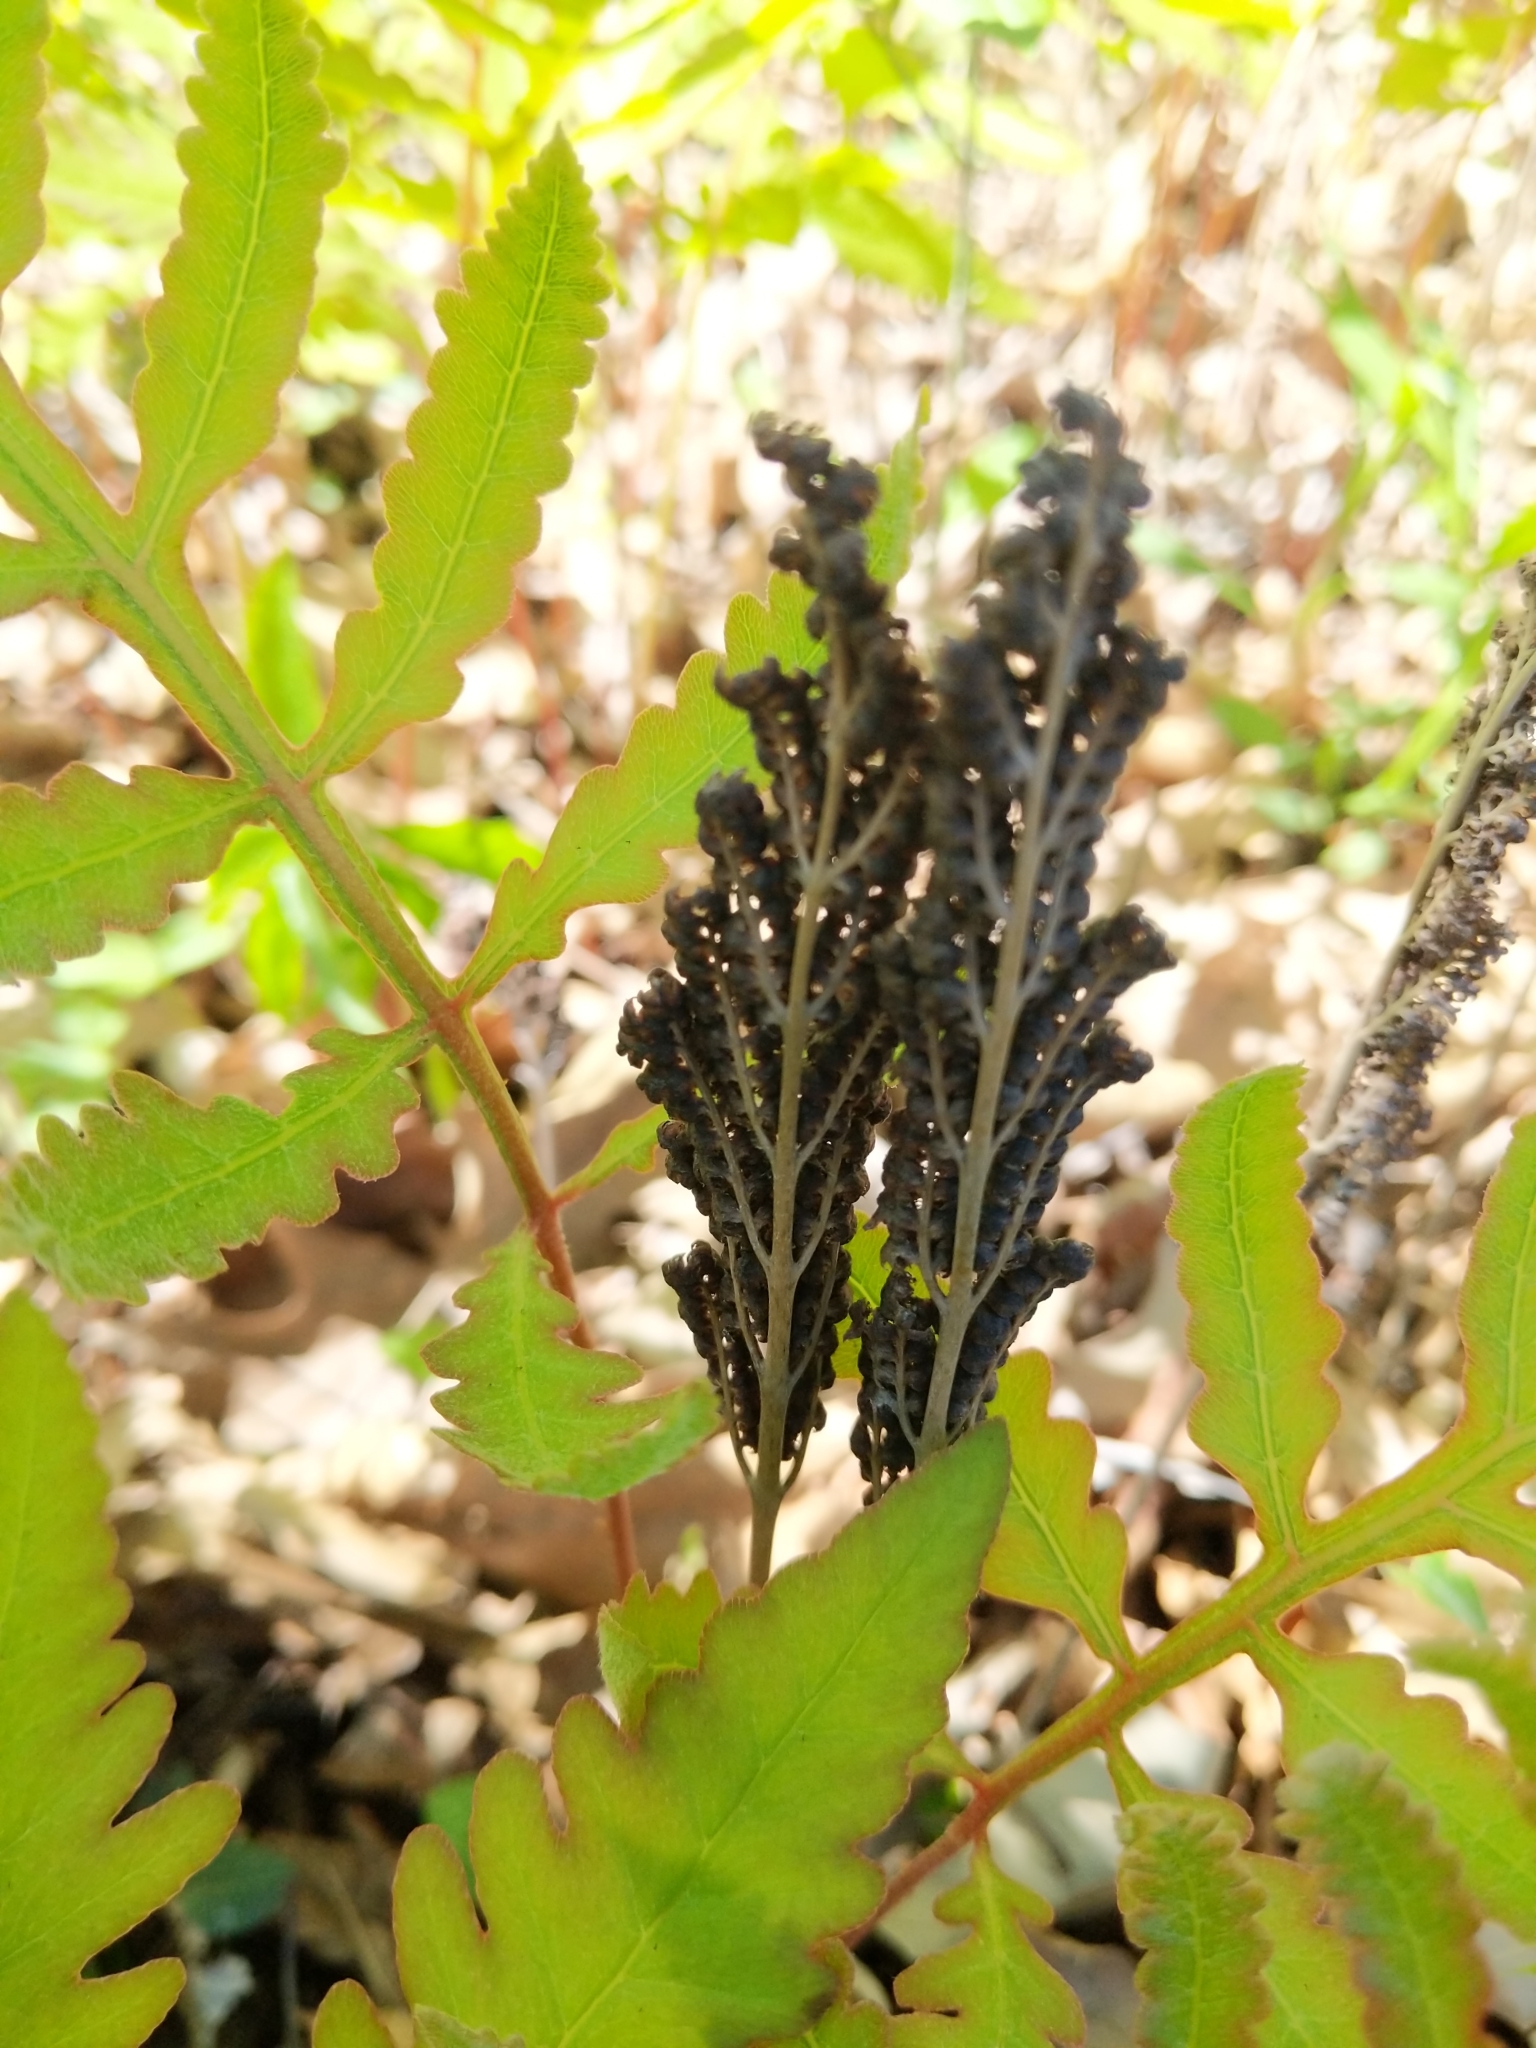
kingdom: Plantae
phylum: Tracheophyta
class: Polypodiopsida
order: Polypodiales
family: Onocleaceae
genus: Onoclea
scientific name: Onoclea sensibilis
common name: Sensitive fern
